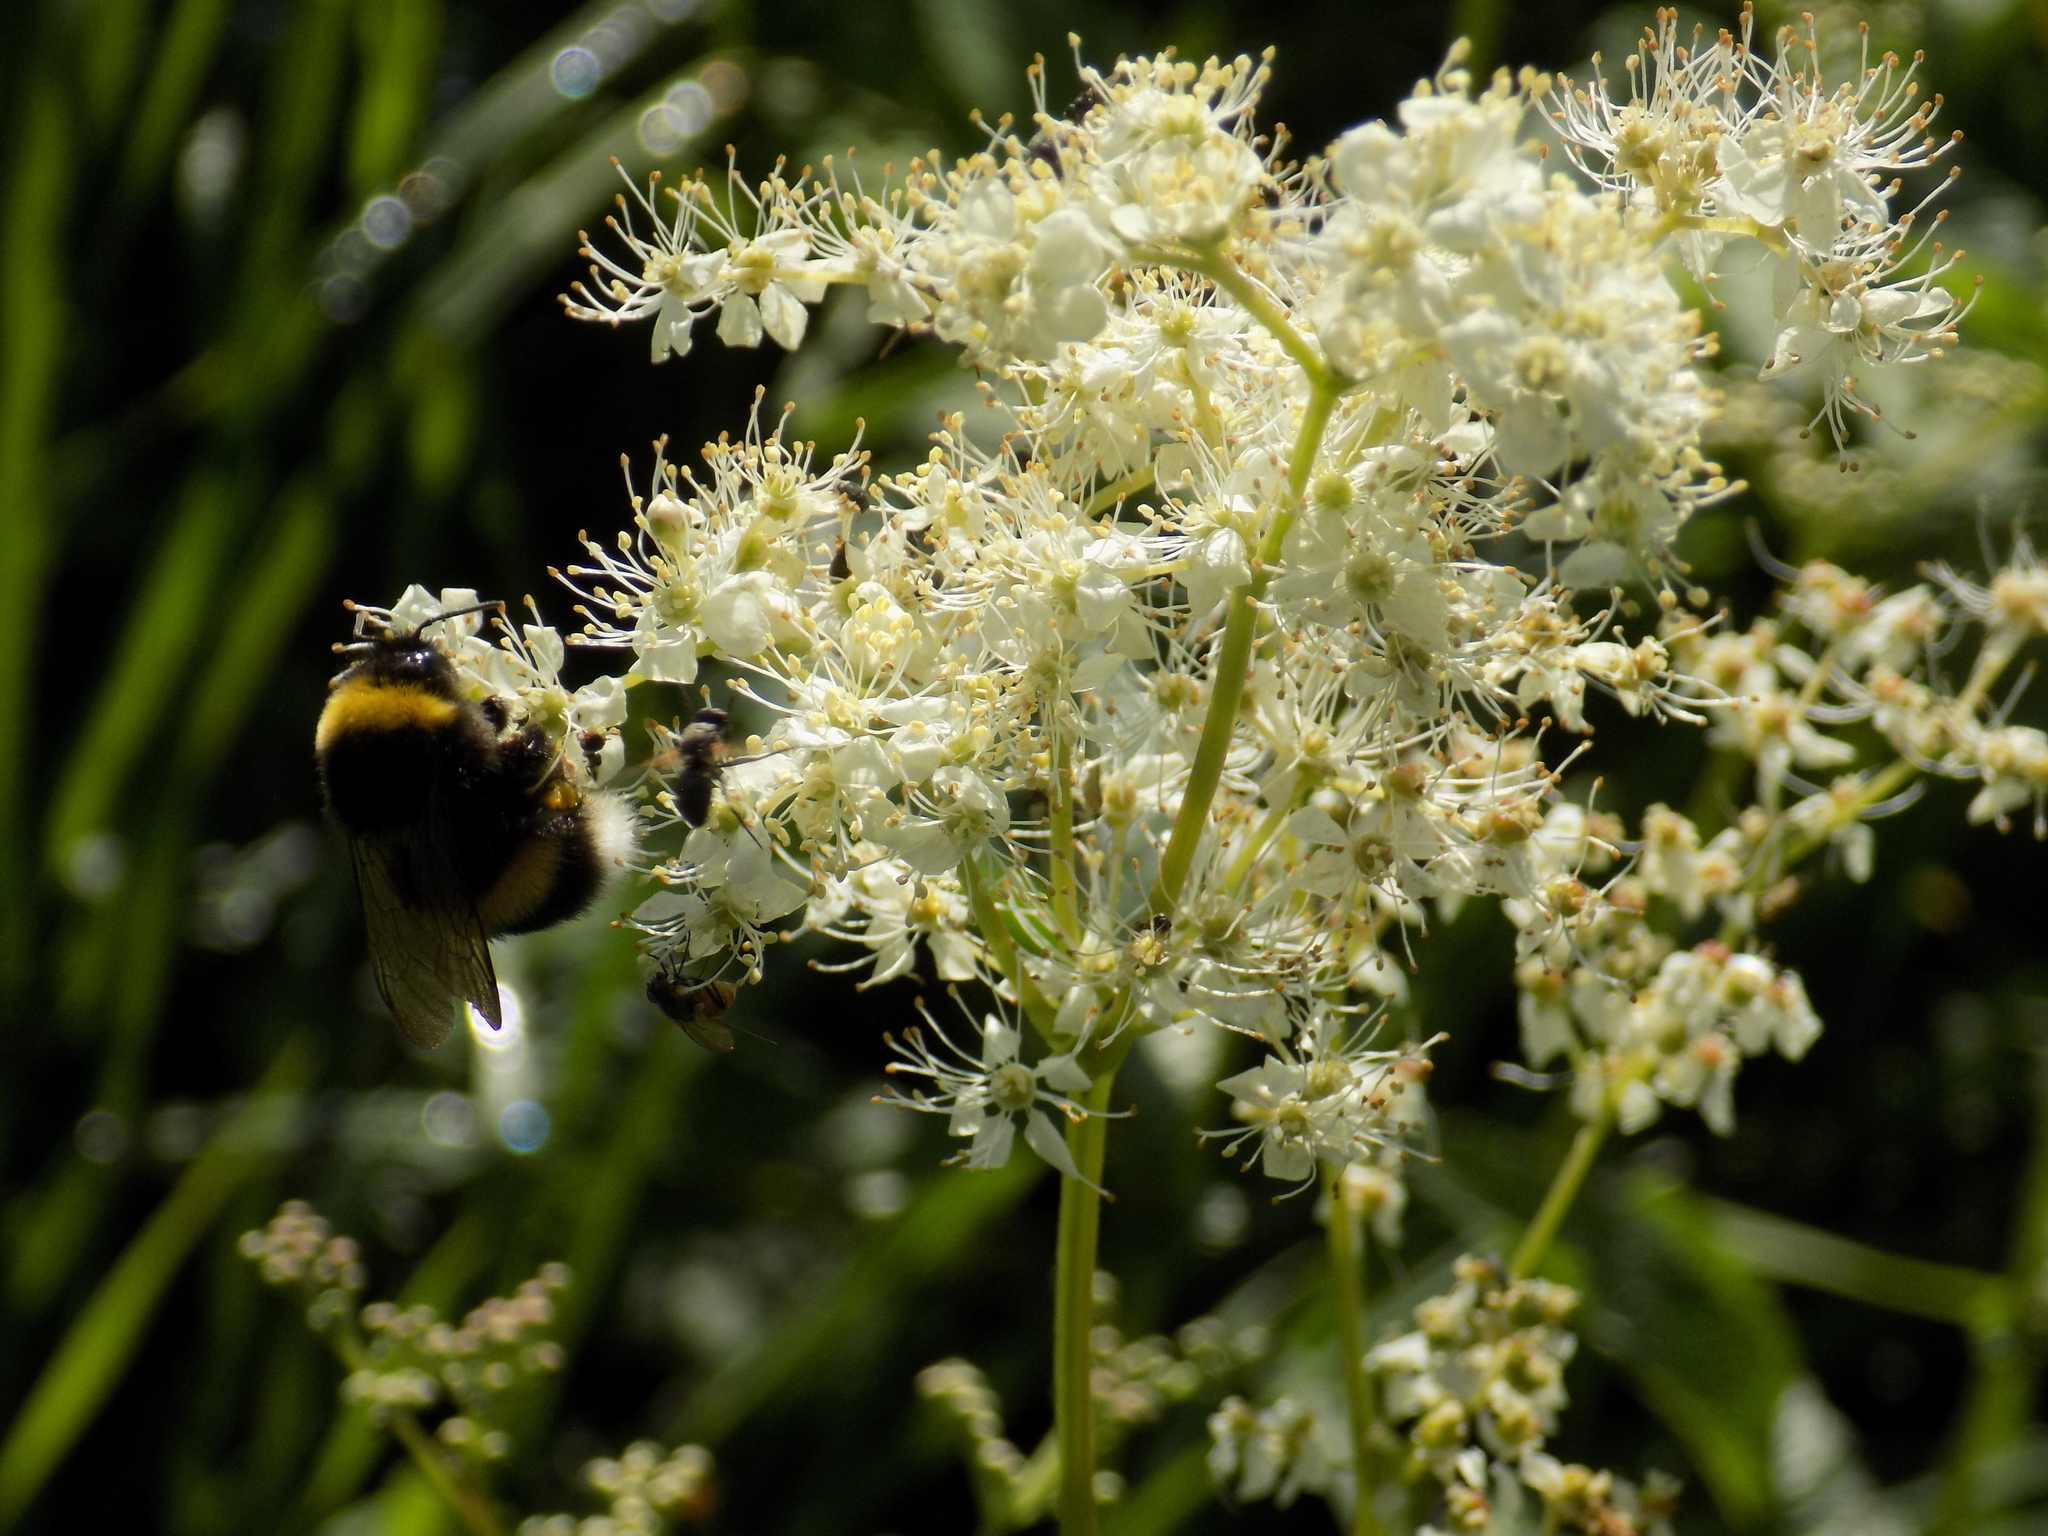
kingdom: Animalia
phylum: Arthropoda
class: Insecta
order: Hymenoptera
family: Apidae
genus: Bombus
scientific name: Bombus
